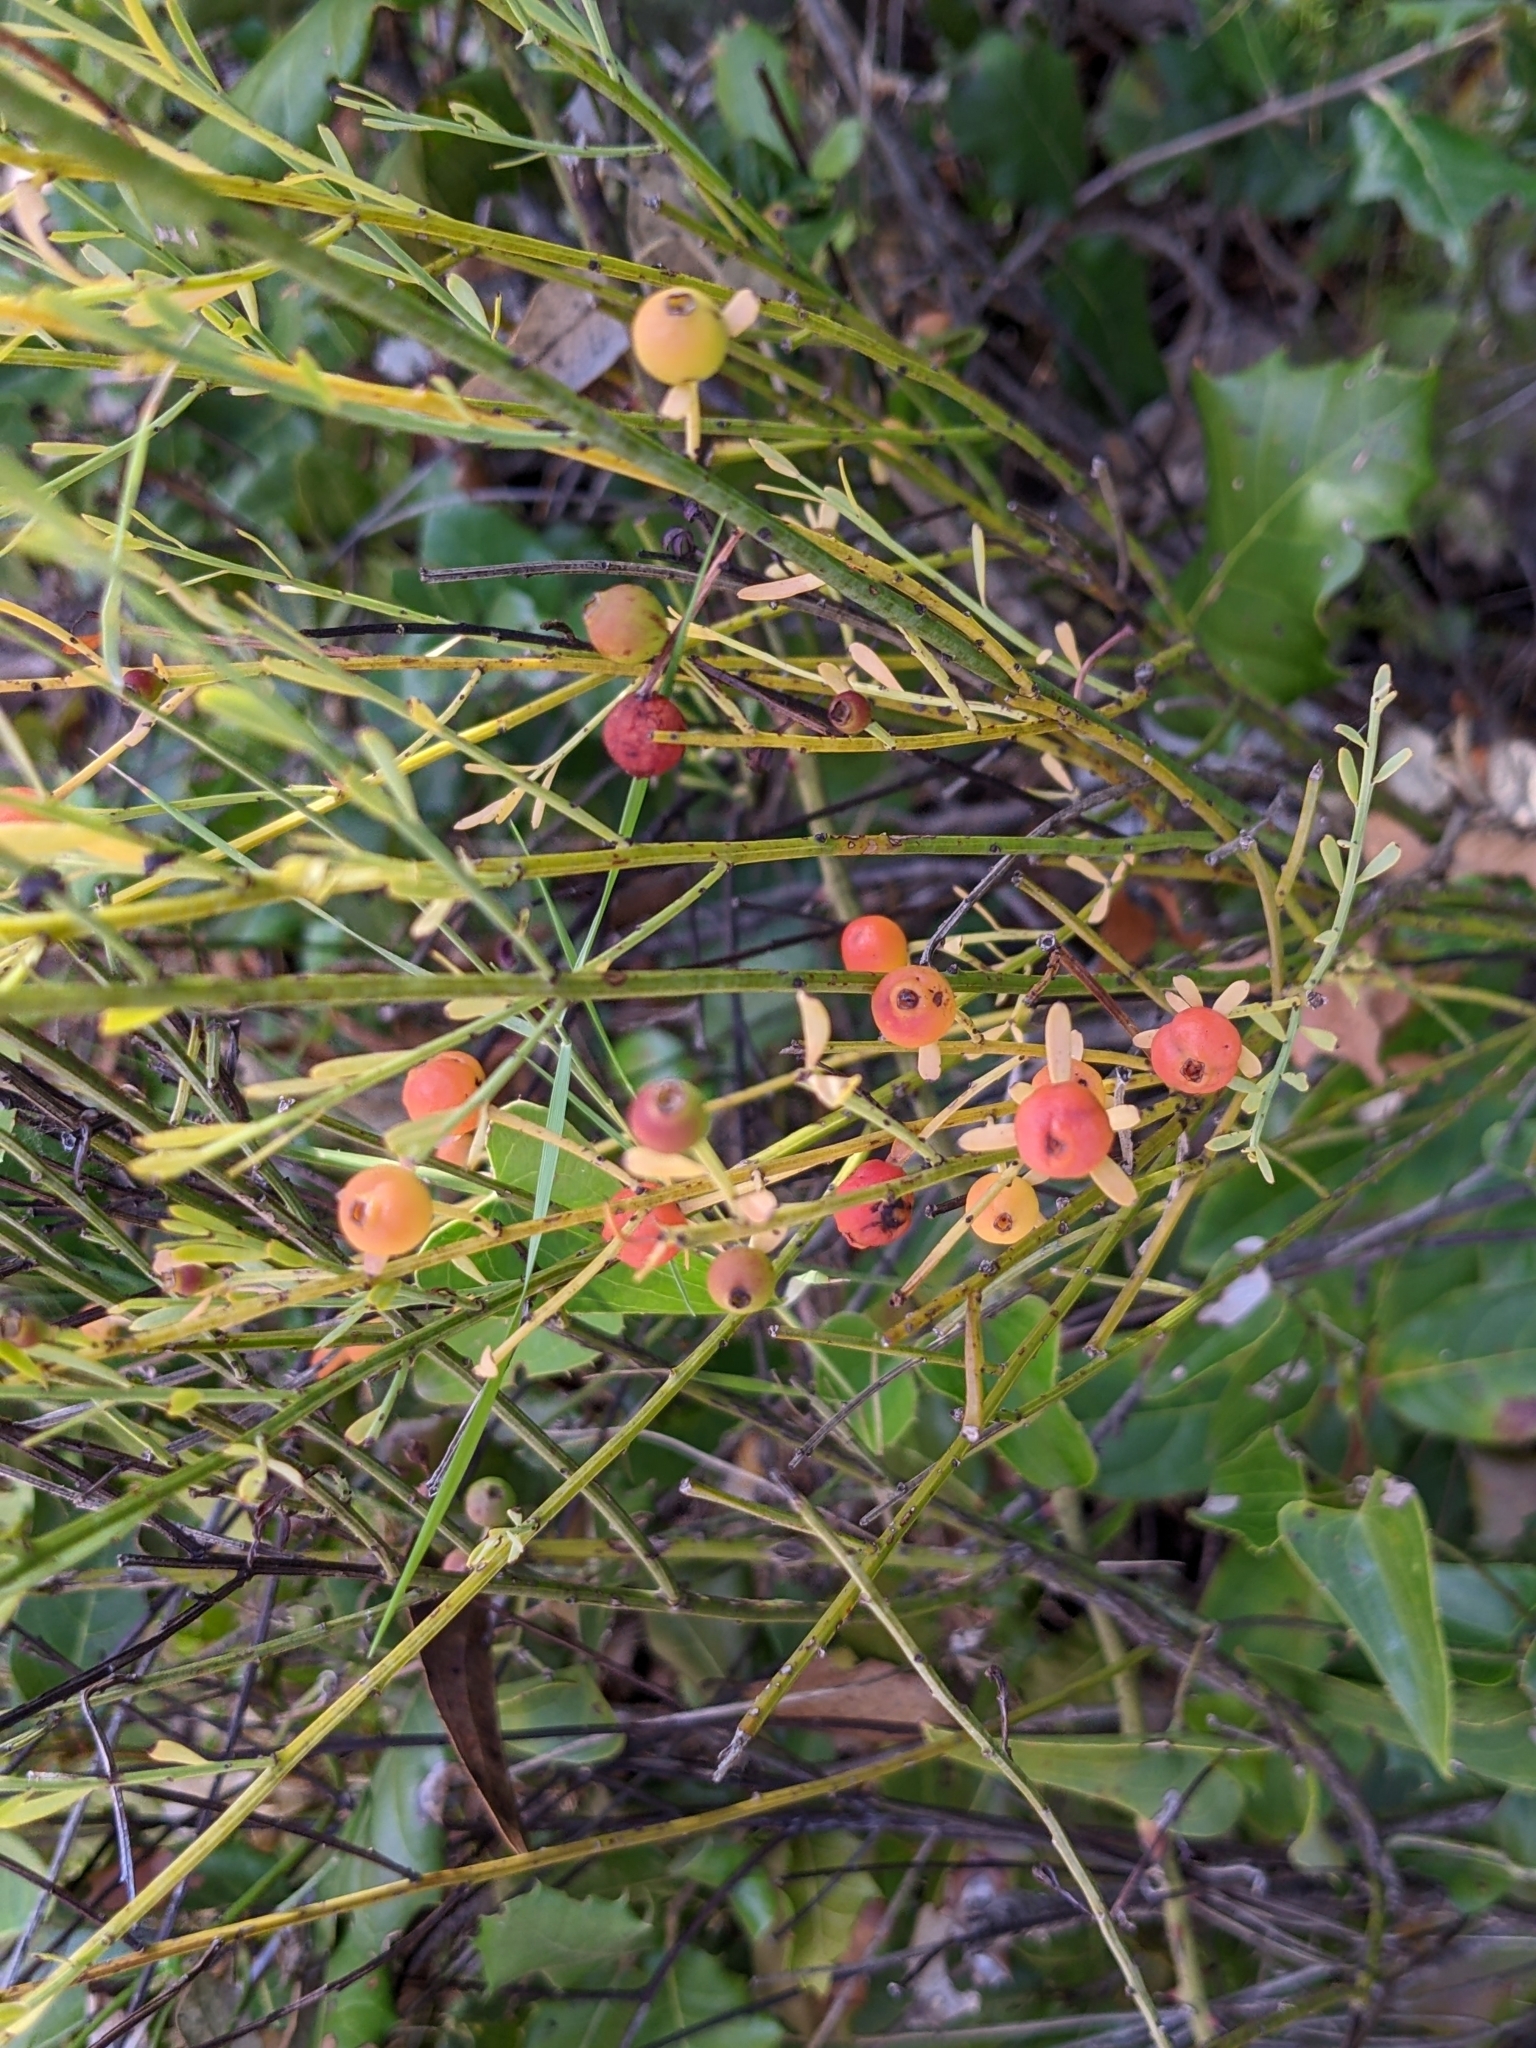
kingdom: Plantae
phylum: Tracheophyta
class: Magnoliopsida
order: Santalales
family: Santalaceae
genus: Osyris
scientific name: Osyris alba
